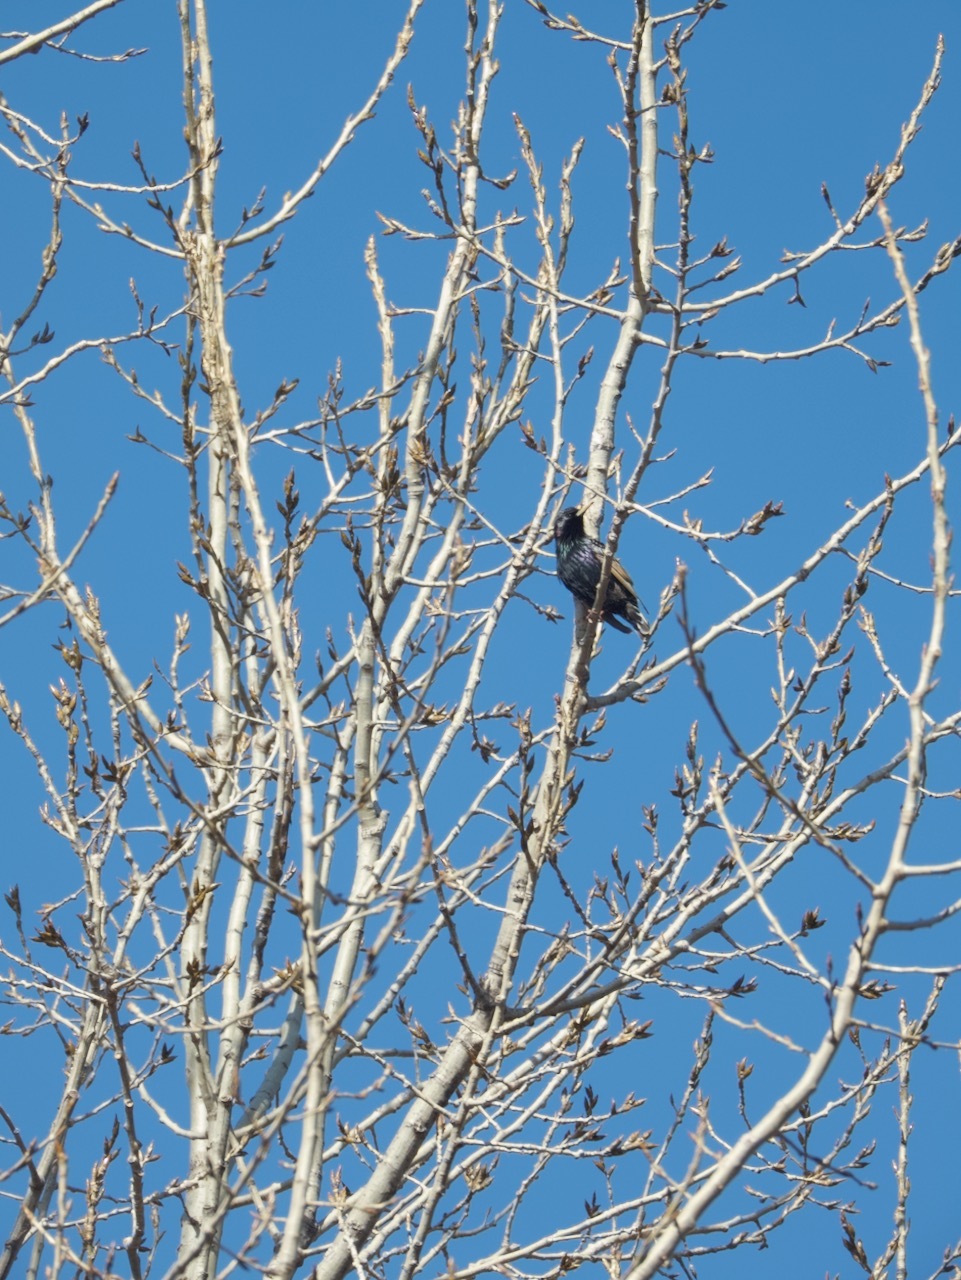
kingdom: Animalia
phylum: Chordata
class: Aves
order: Passeriformes
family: Sturnidae
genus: Sturnus
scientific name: Sturnus vulgaris
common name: Common starling
